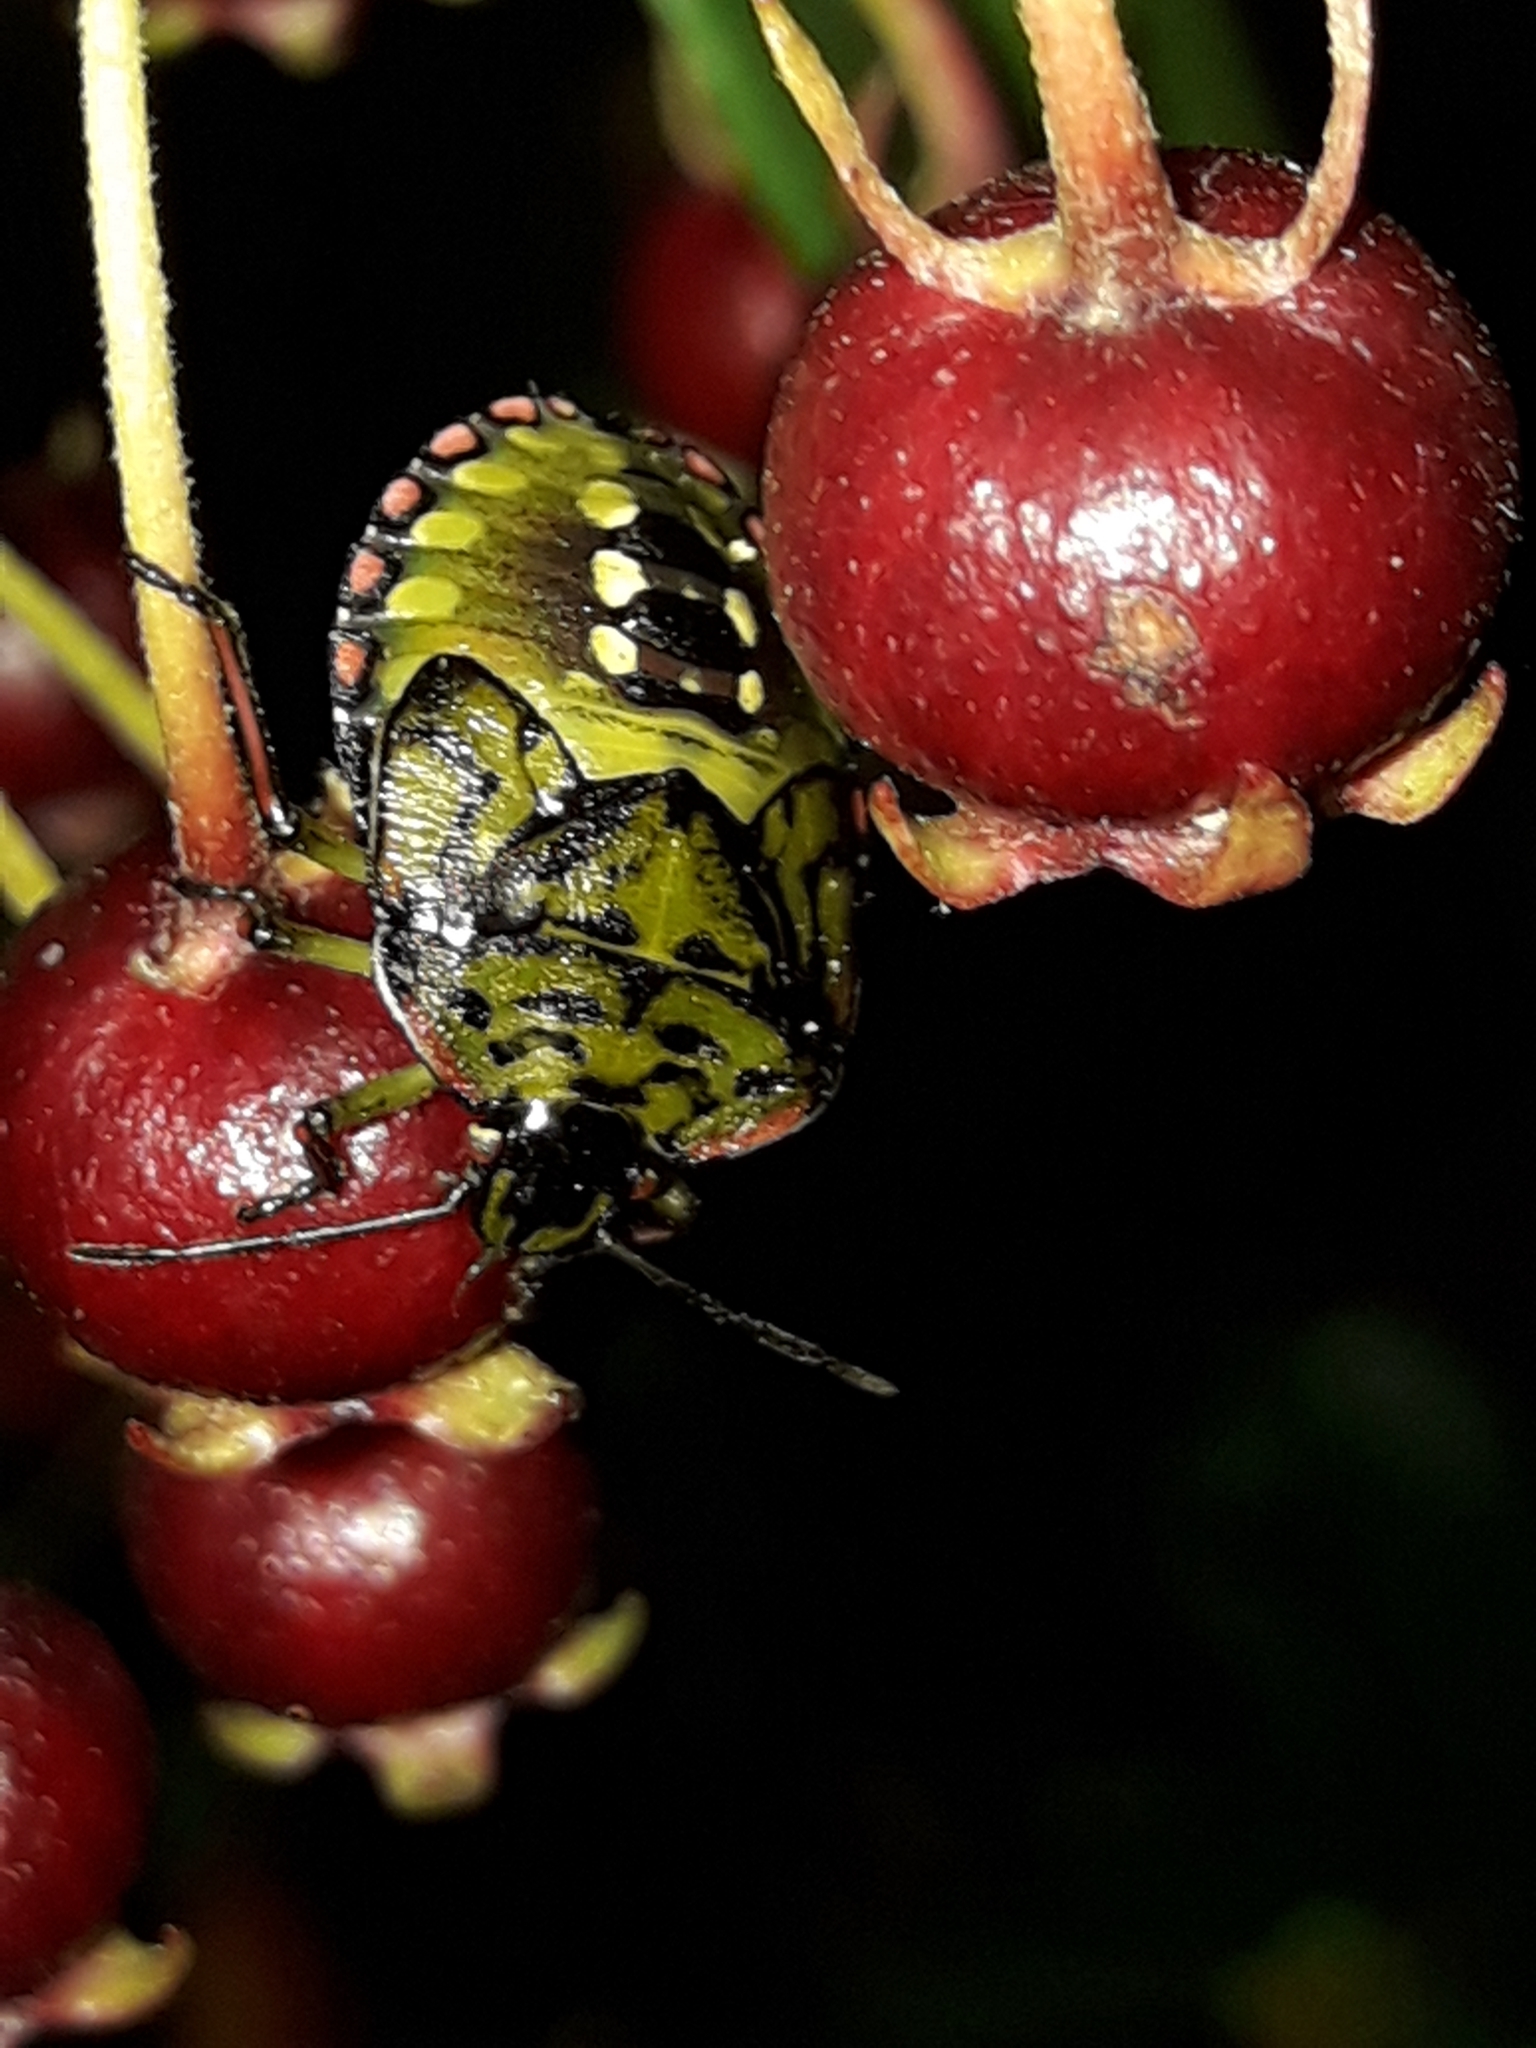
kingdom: Animalia
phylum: Arthropoda
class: Insecta
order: Hemiptera
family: Pentatomidae
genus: Nezara
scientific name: Nezara viridula
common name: Southern green stink bug
